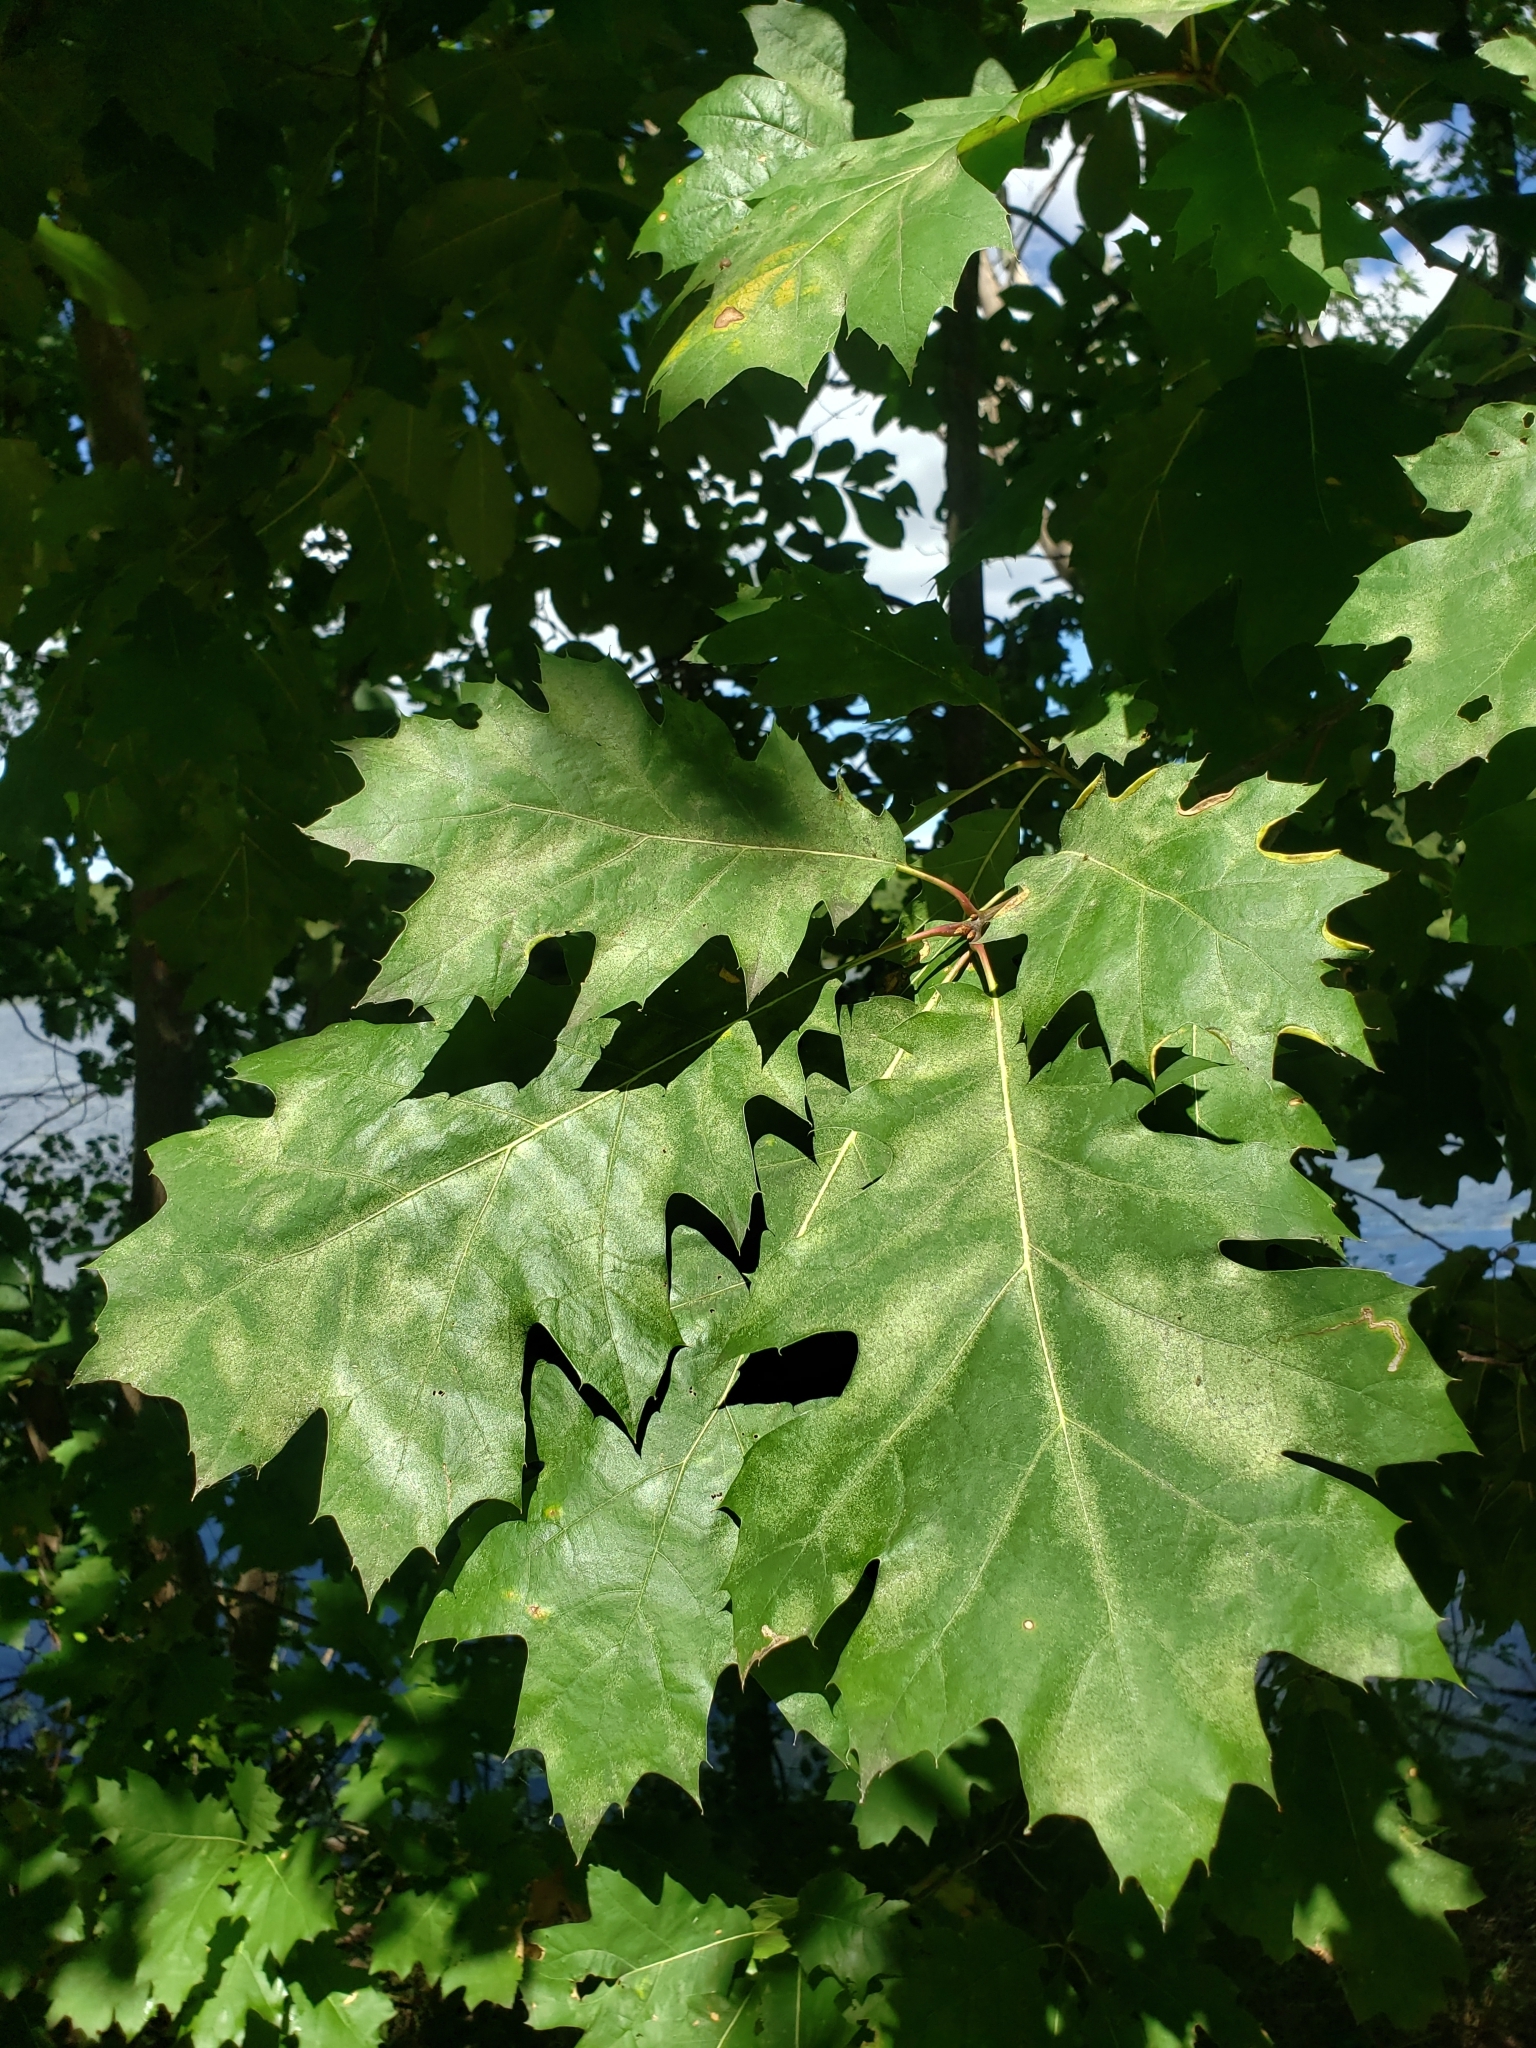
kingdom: Plantae
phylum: Tracheophyta
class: Magnoliopsida
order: Fagales
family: Fagaceae
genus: Quercus
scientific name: Quercus rubra
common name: Red oak
